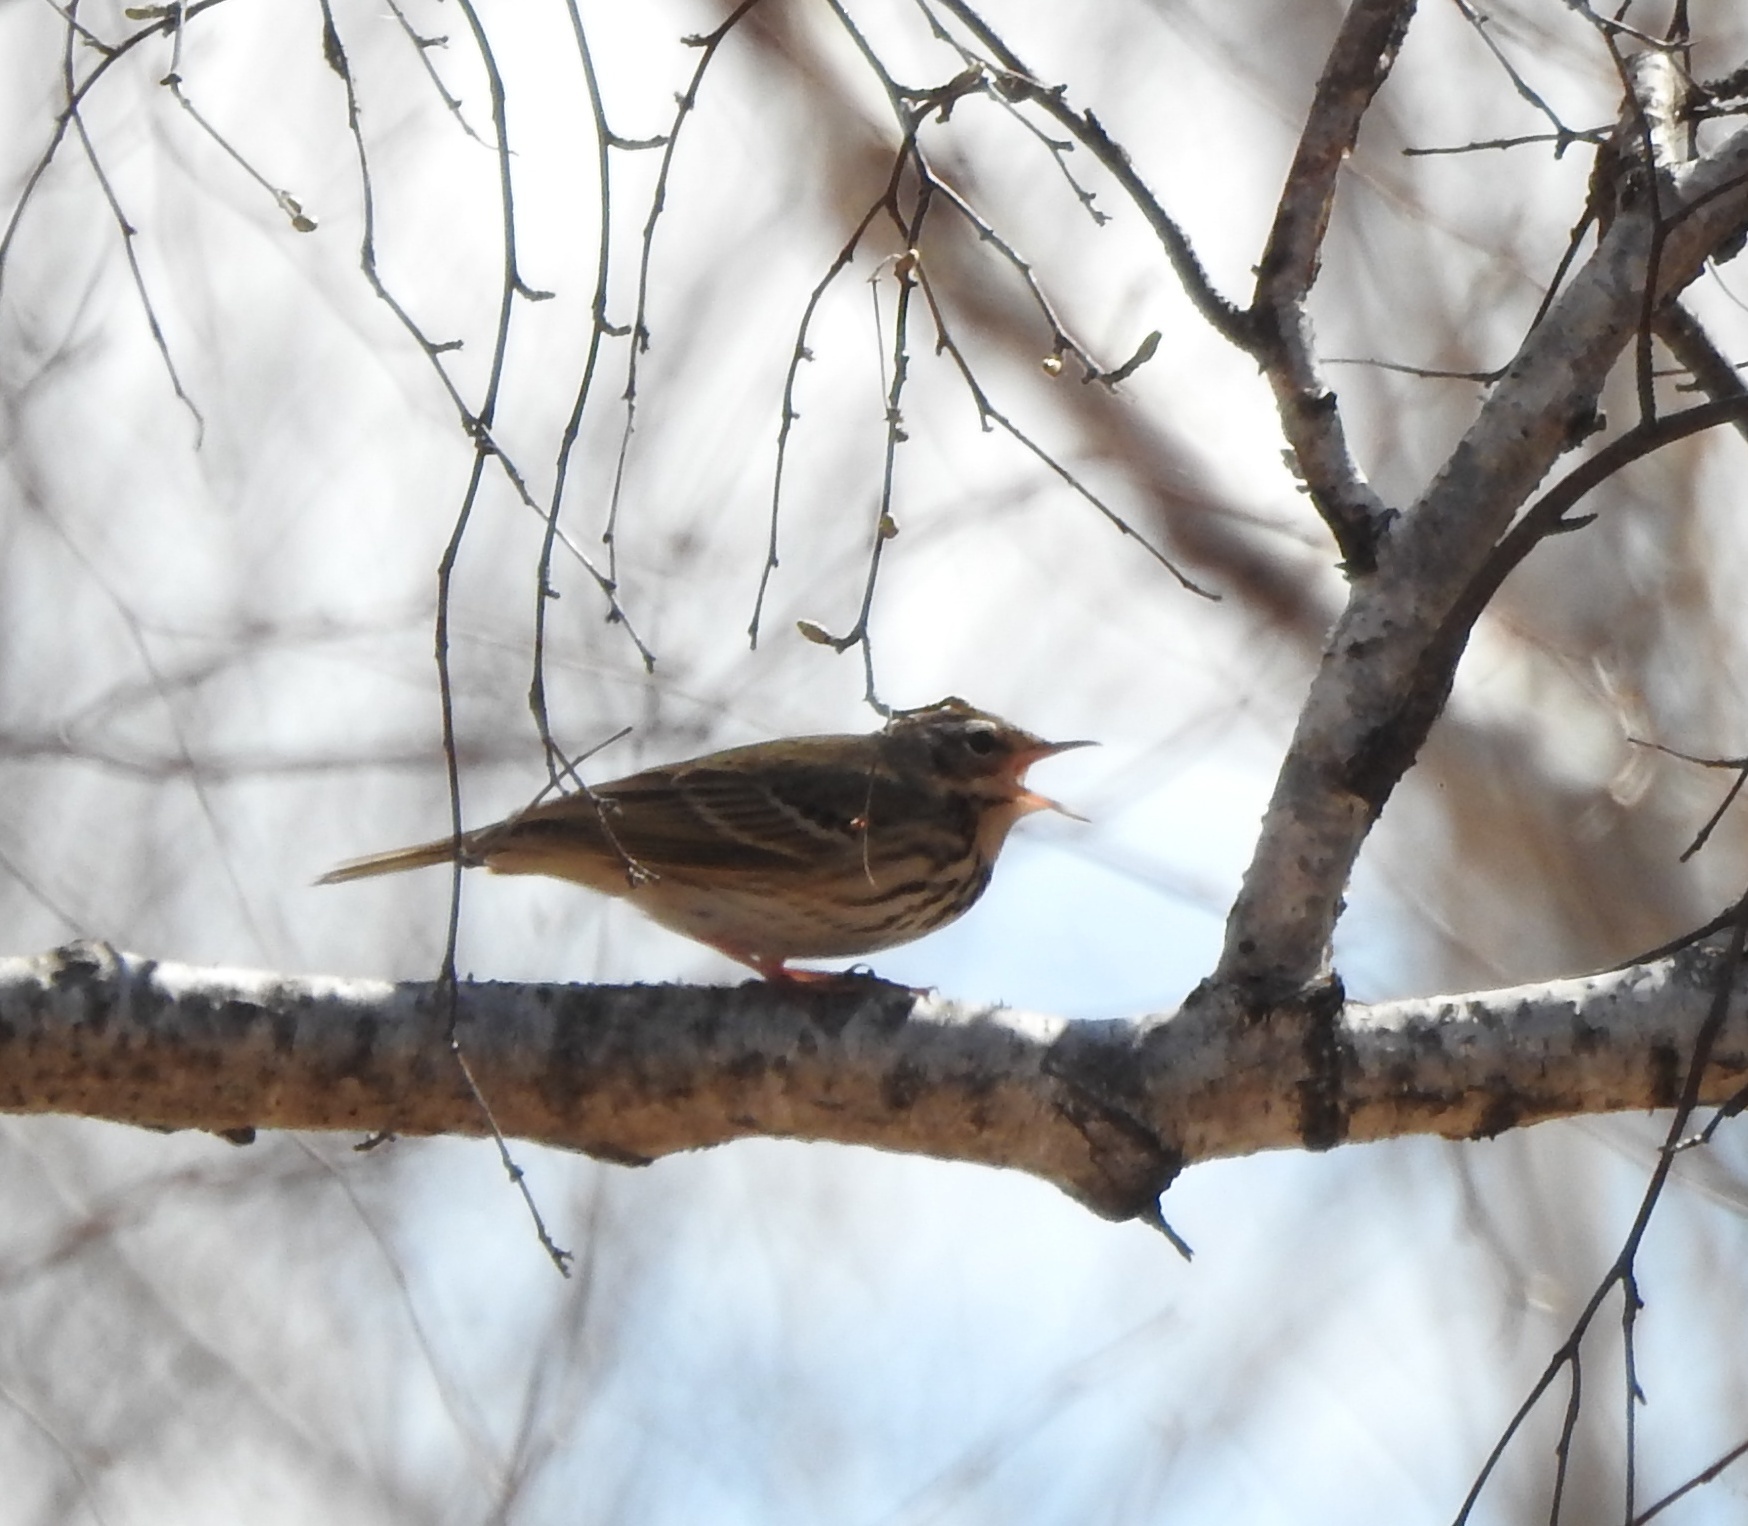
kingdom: Animalia
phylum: Chordata
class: Aves
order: Passeriformes
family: Motacillidae
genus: Anthus
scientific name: Anthus hodgsoni
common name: Olive-backed pipit
